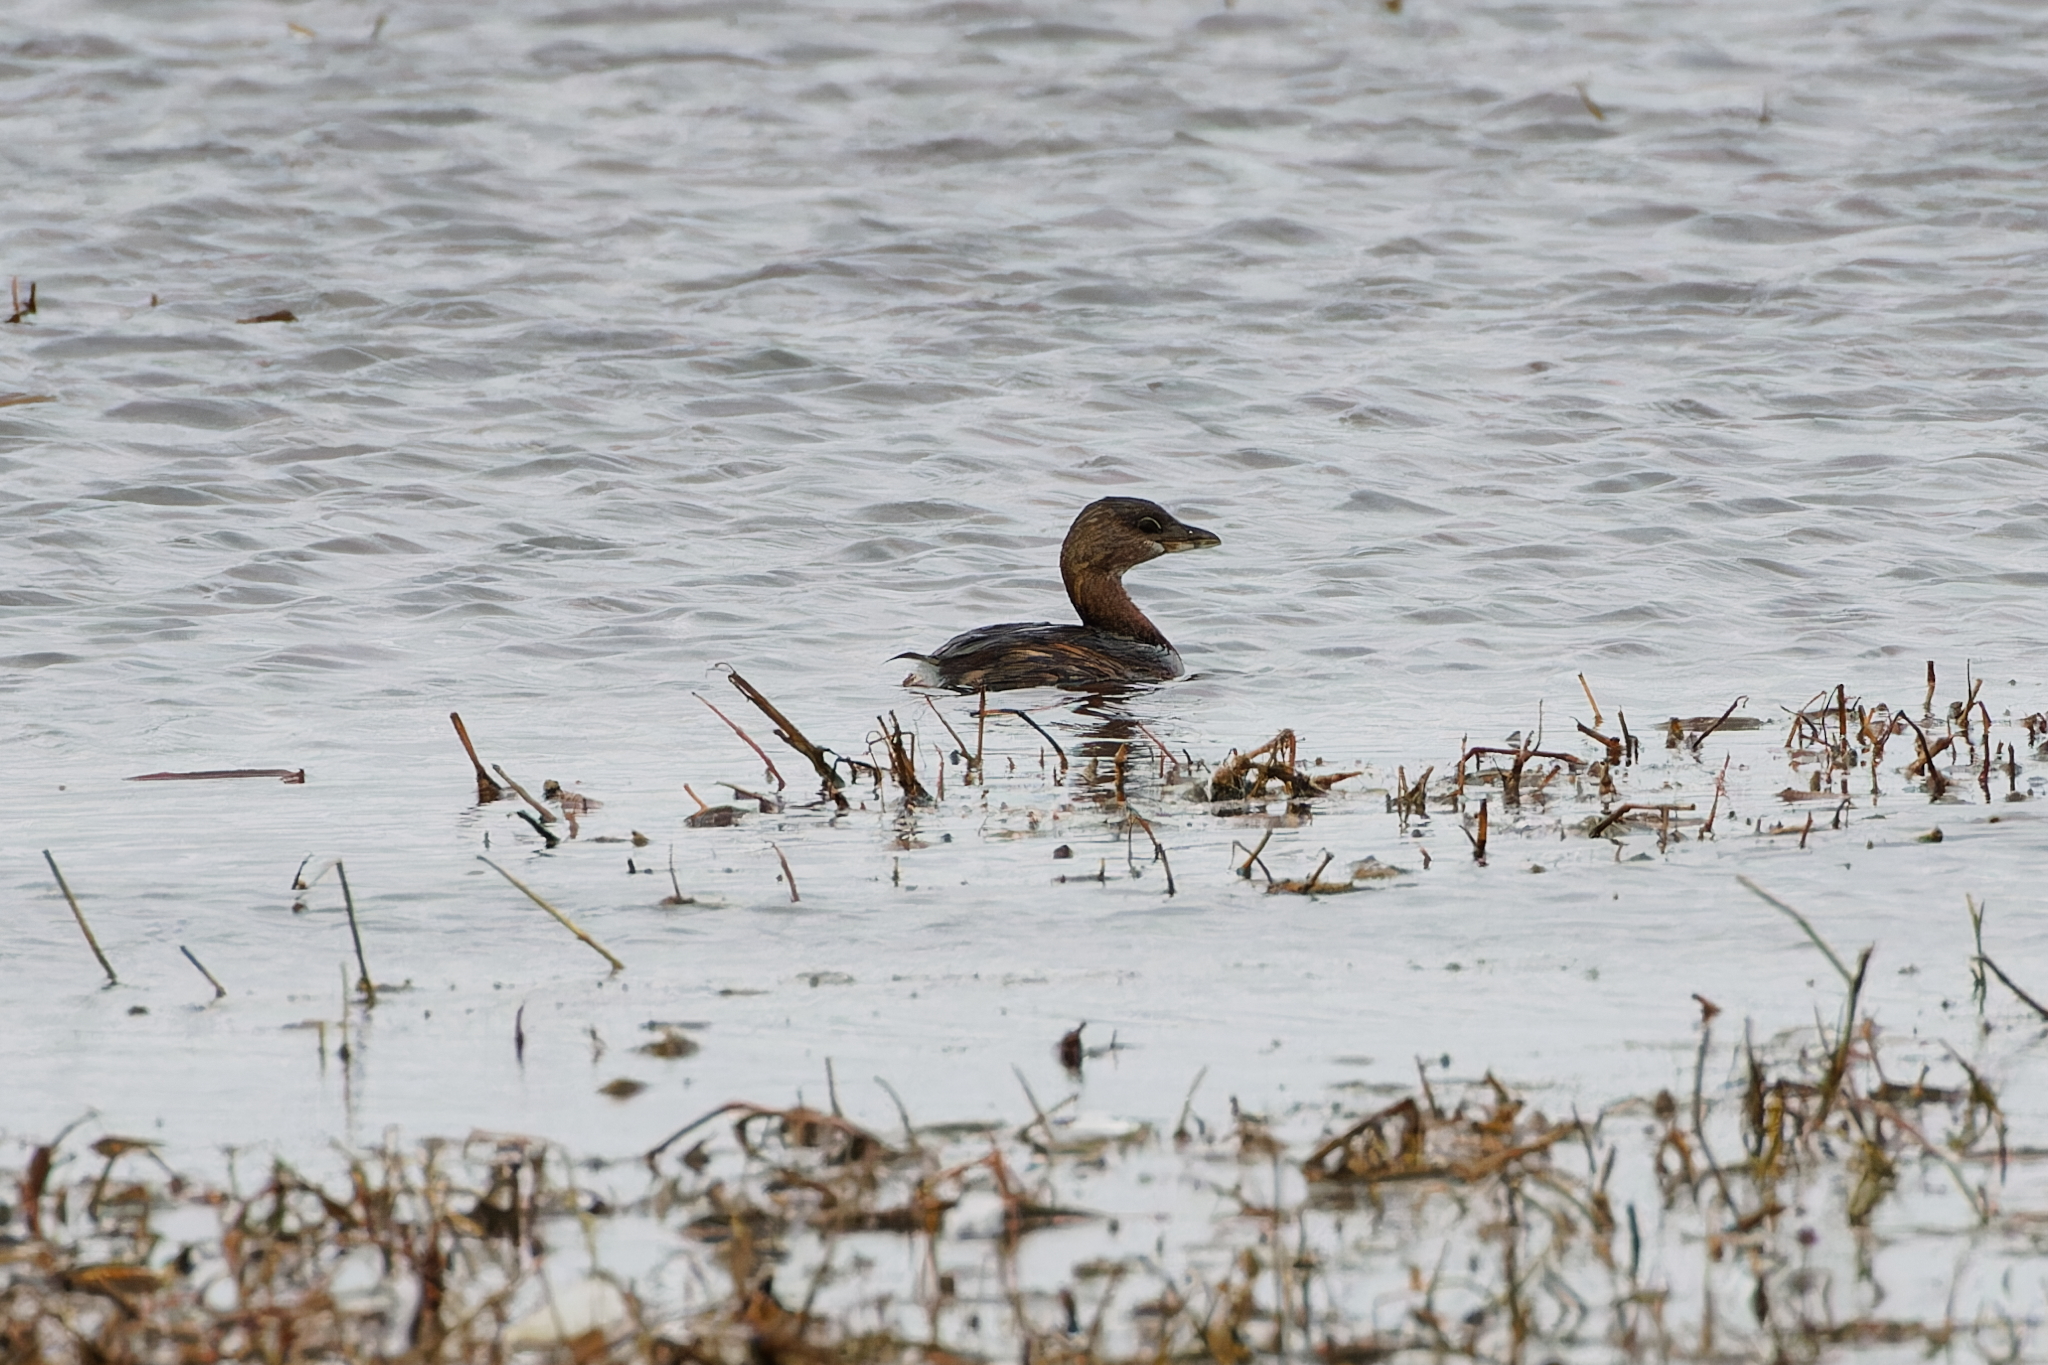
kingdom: Animalia
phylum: Chordata
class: Aves
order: Podicipediformes
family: Podicipedidae
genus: Podilymbus
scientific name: Podilymbus podiceps
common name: Pied-billed grebe
